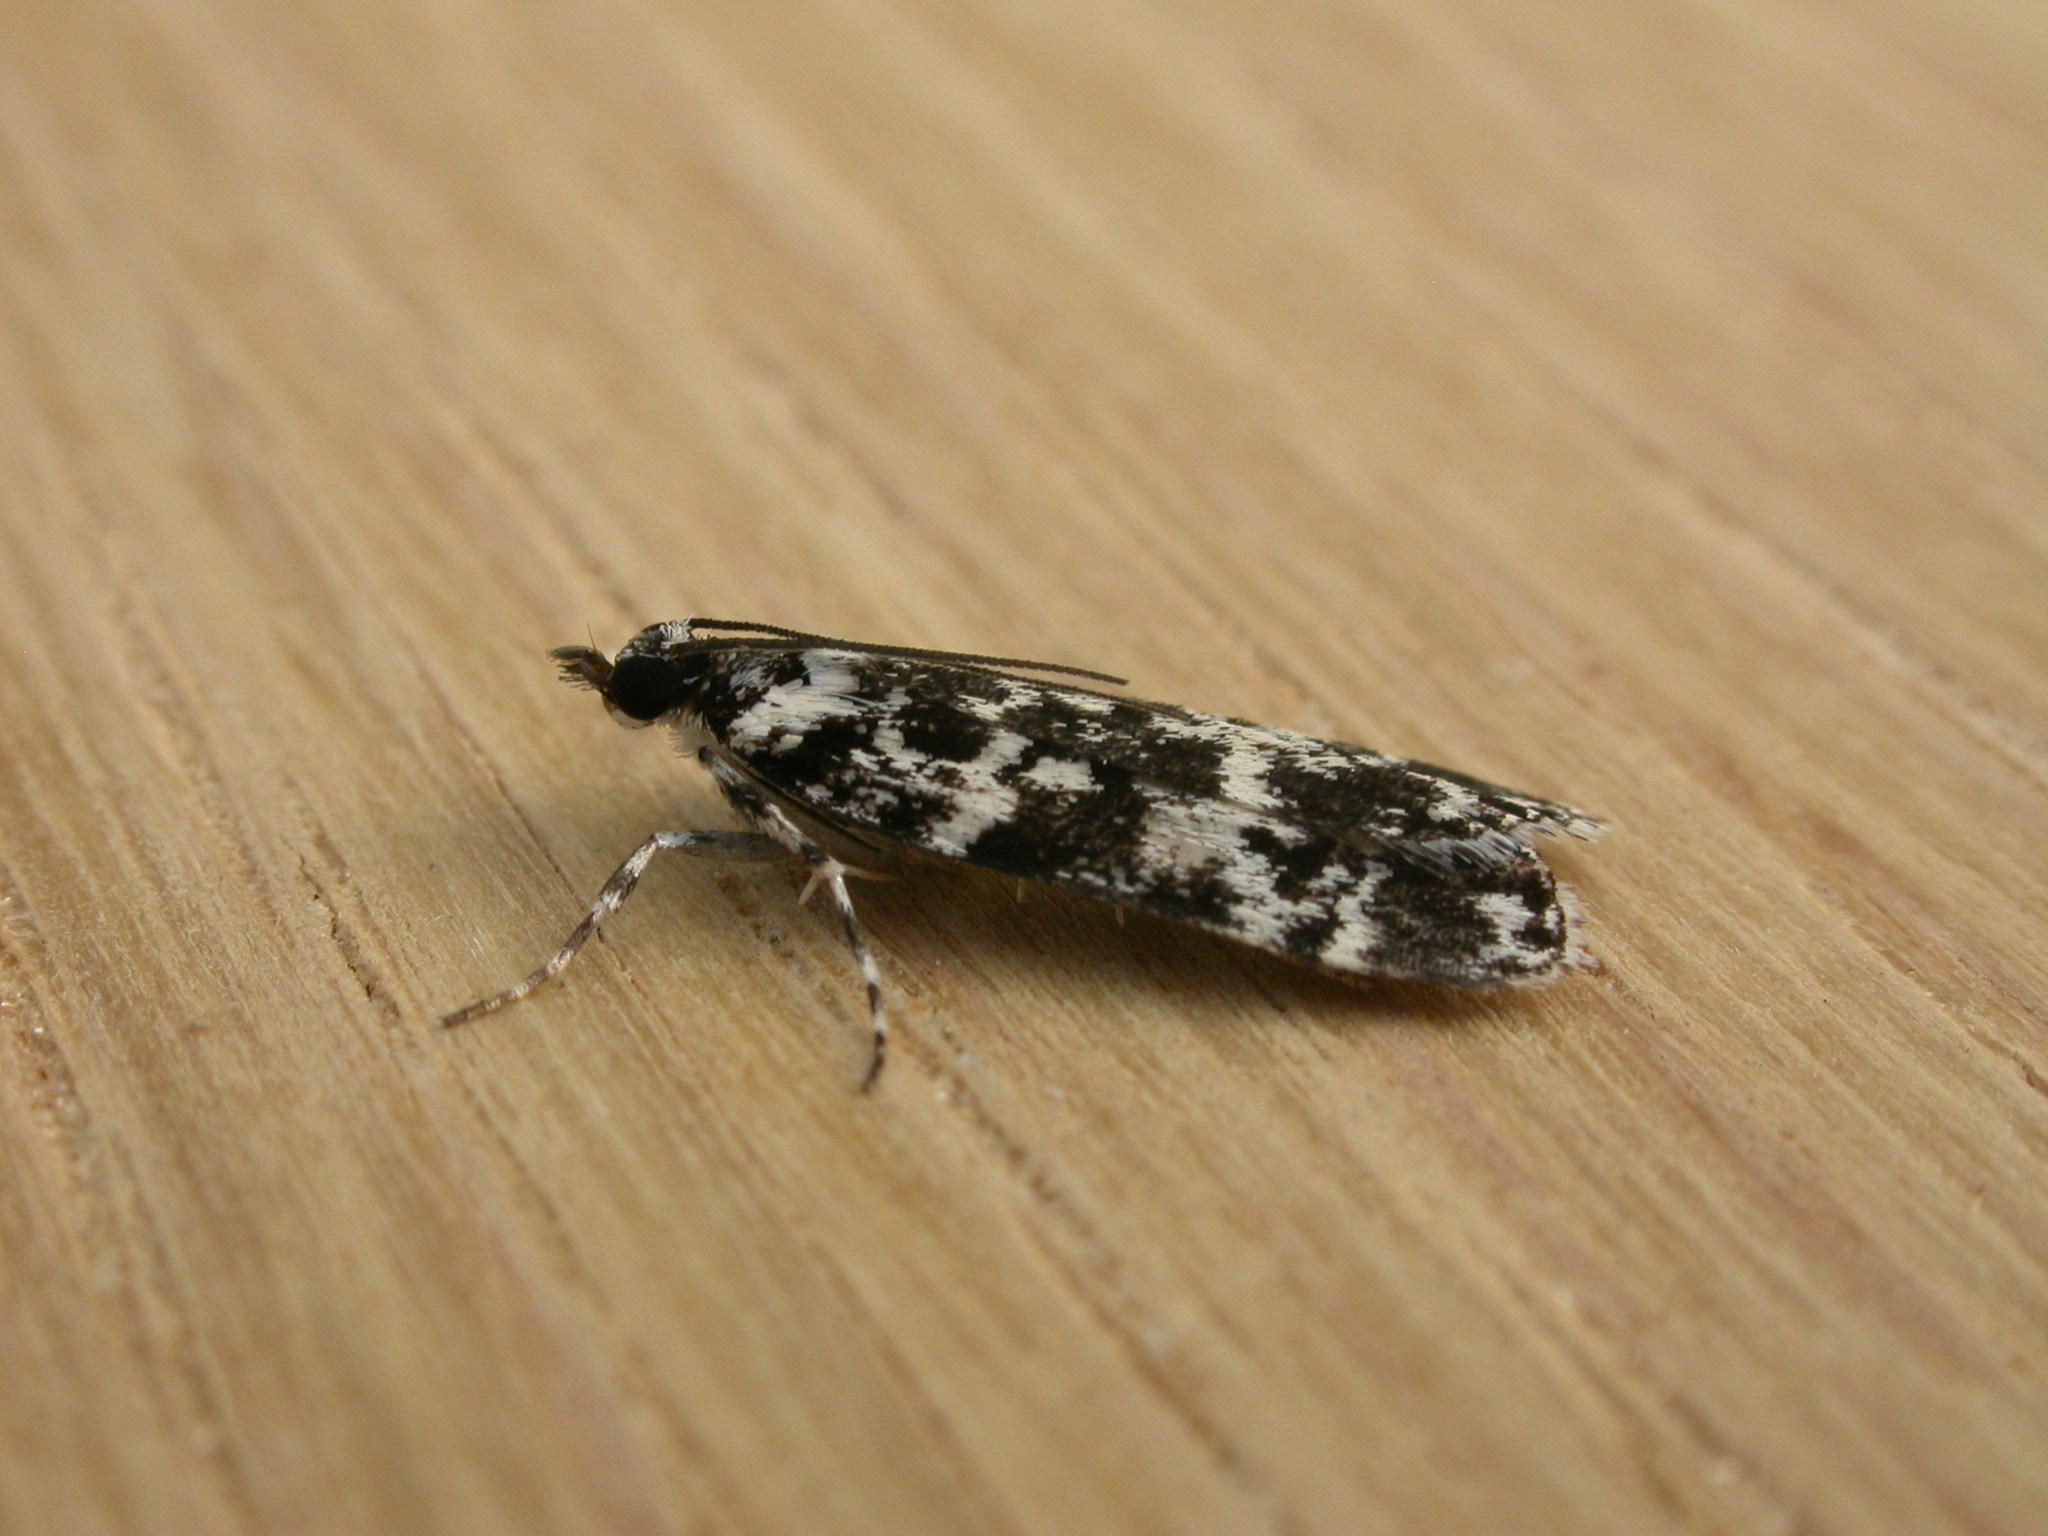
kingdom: Animalia
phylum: Arthropoda
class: Insecta
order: Lepidoptera
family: Crambidae
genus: Scoparia
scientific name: Scoparia exhibitalis
